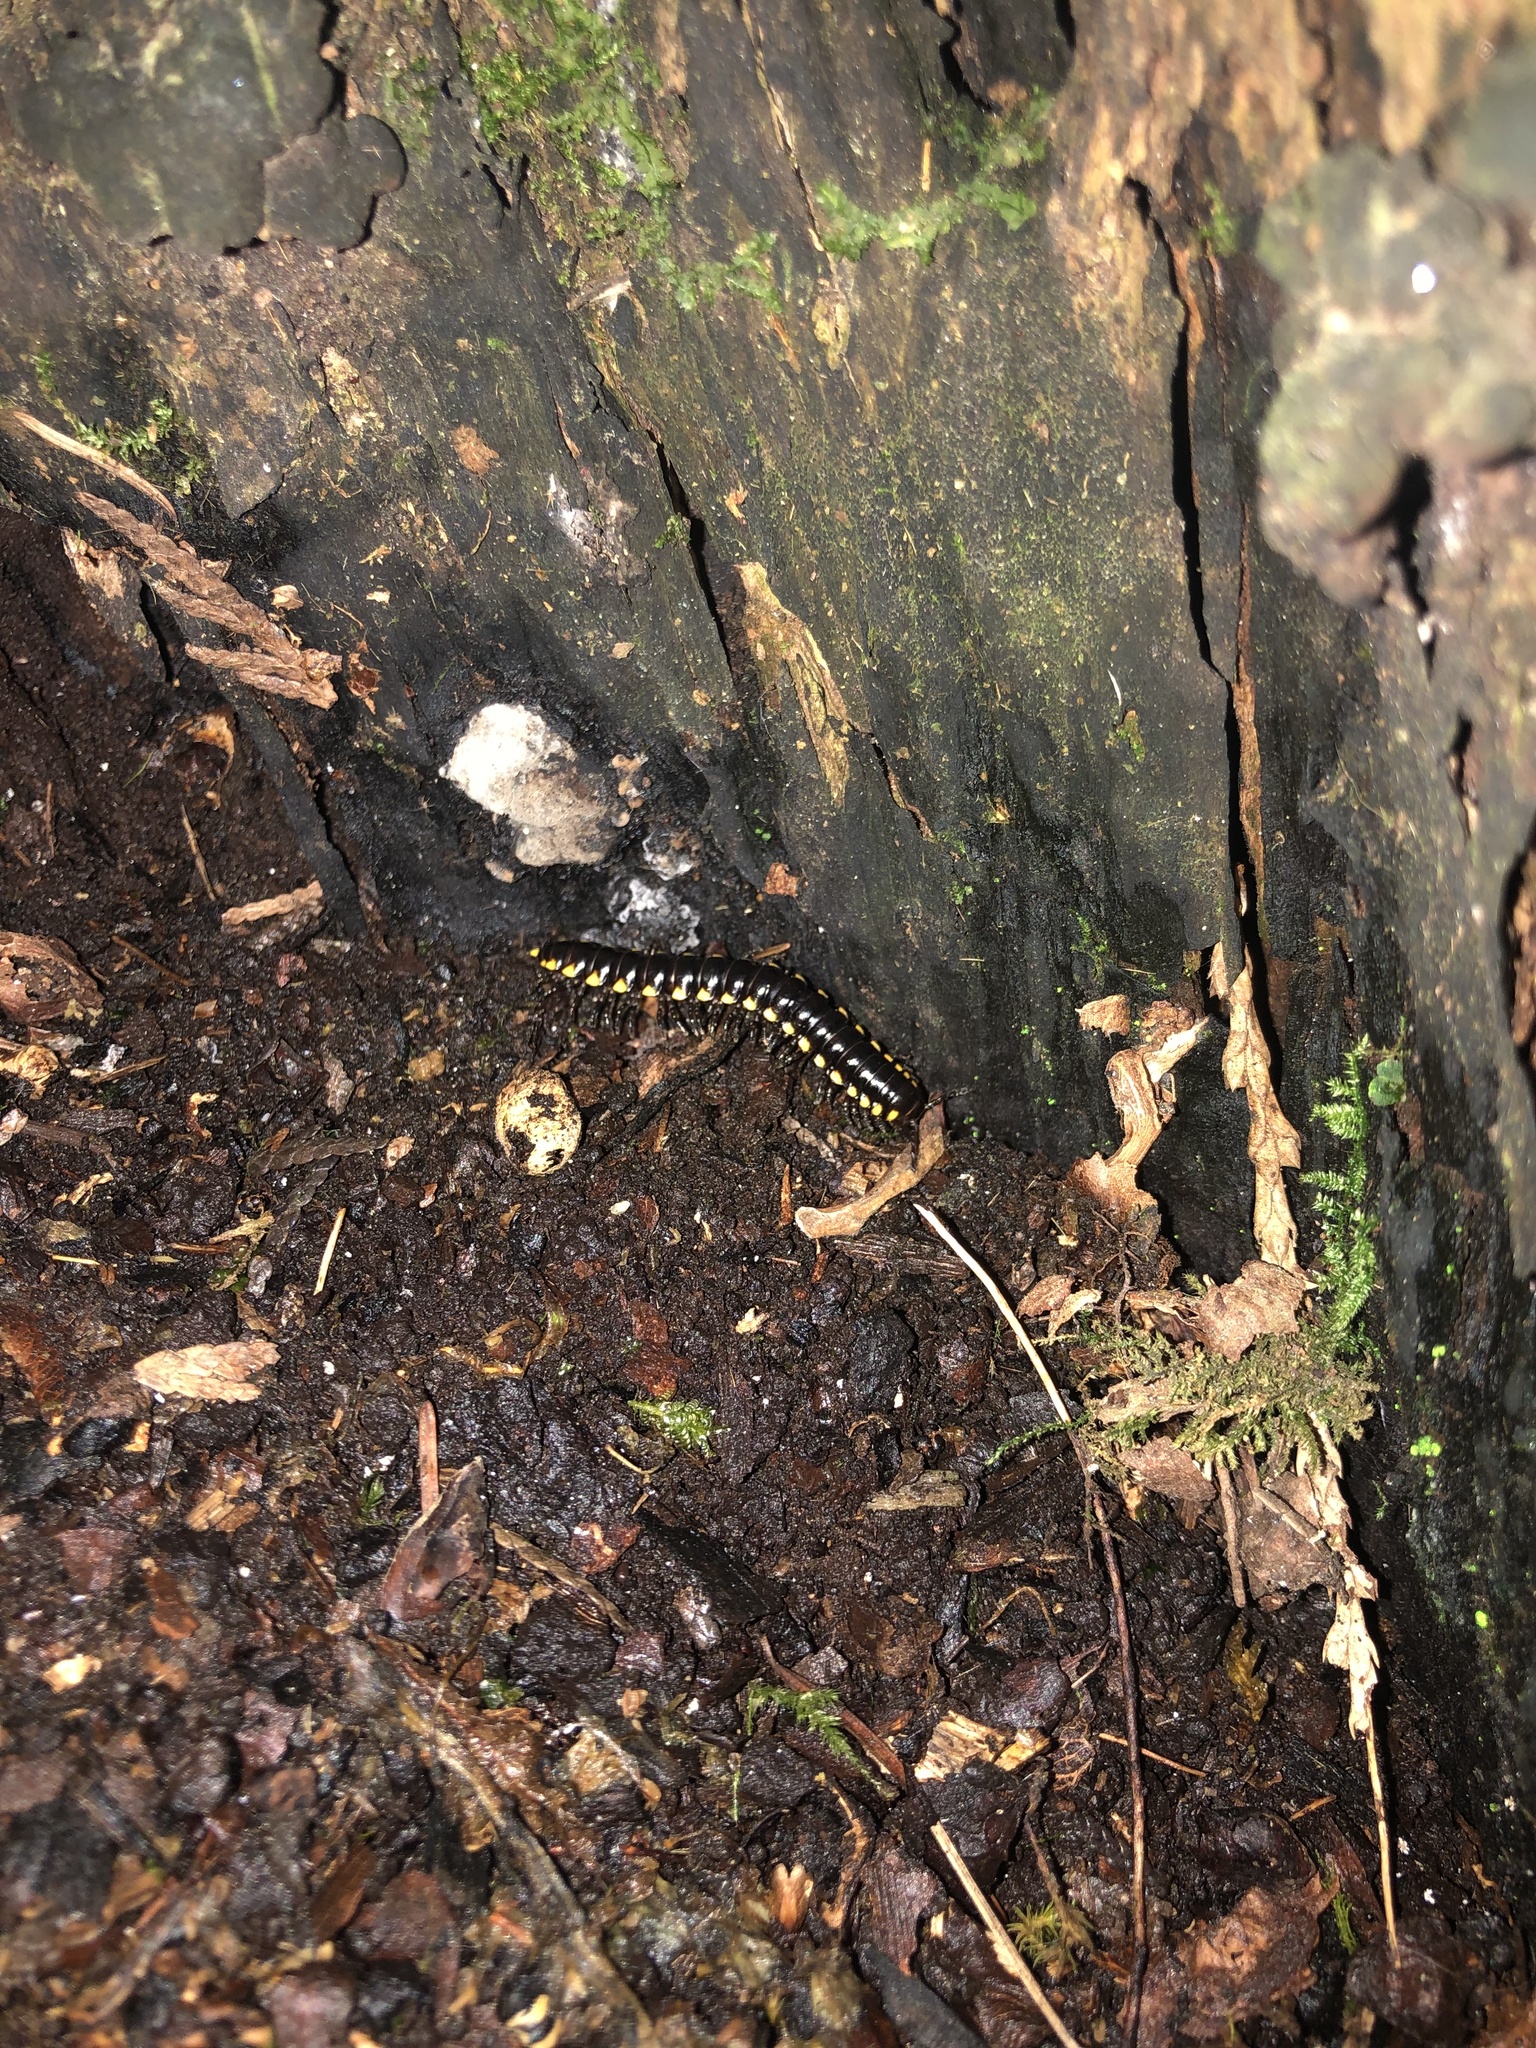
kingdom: Animalia
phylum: Arthropoda
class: Diplopoda
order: Polydesmida
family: Xystodesmidae
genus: Harpaphe
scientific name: Harpaphe haydeniana
